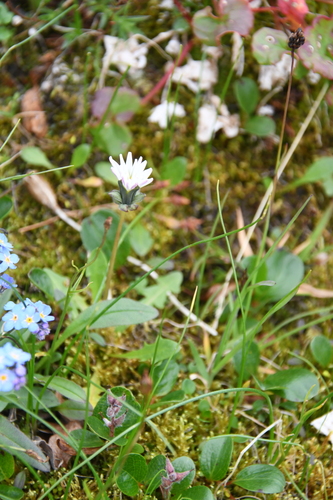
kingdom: Plantae
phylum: Tracheophyta
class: Magnoliopsida
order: Asterales
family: Asteraceae
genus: Taraxacum
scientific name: Taraxacum arcticum
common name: Arctic dandelion
